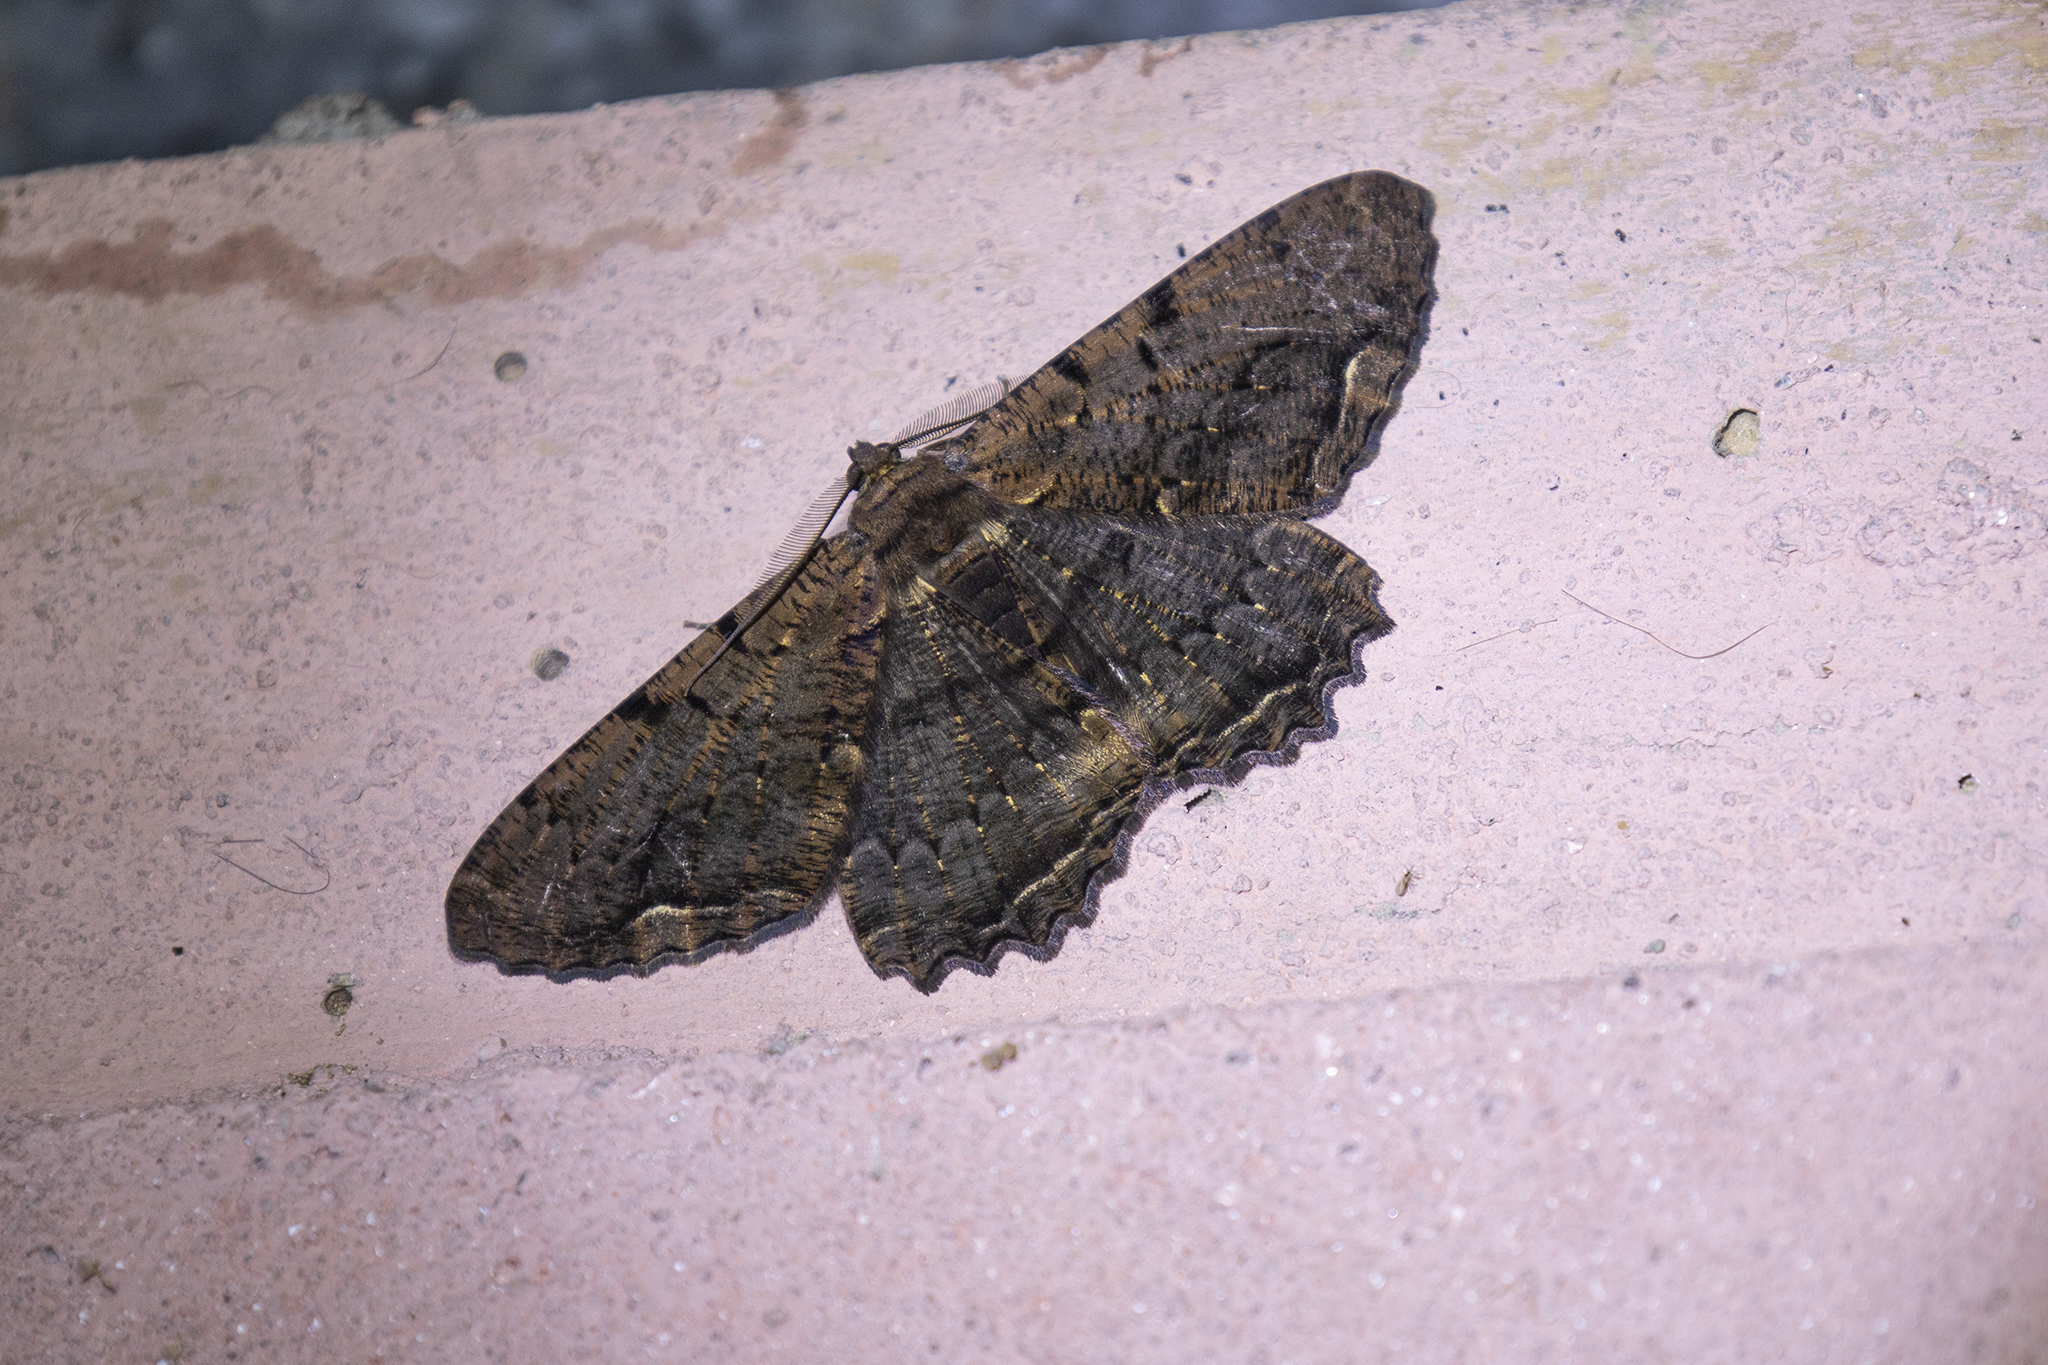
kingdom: Animalia
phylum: Arthropoda
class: Insecta
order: Lepidoptera
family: Geometridae
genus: Chorodna
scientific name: Chorodna mauraria
